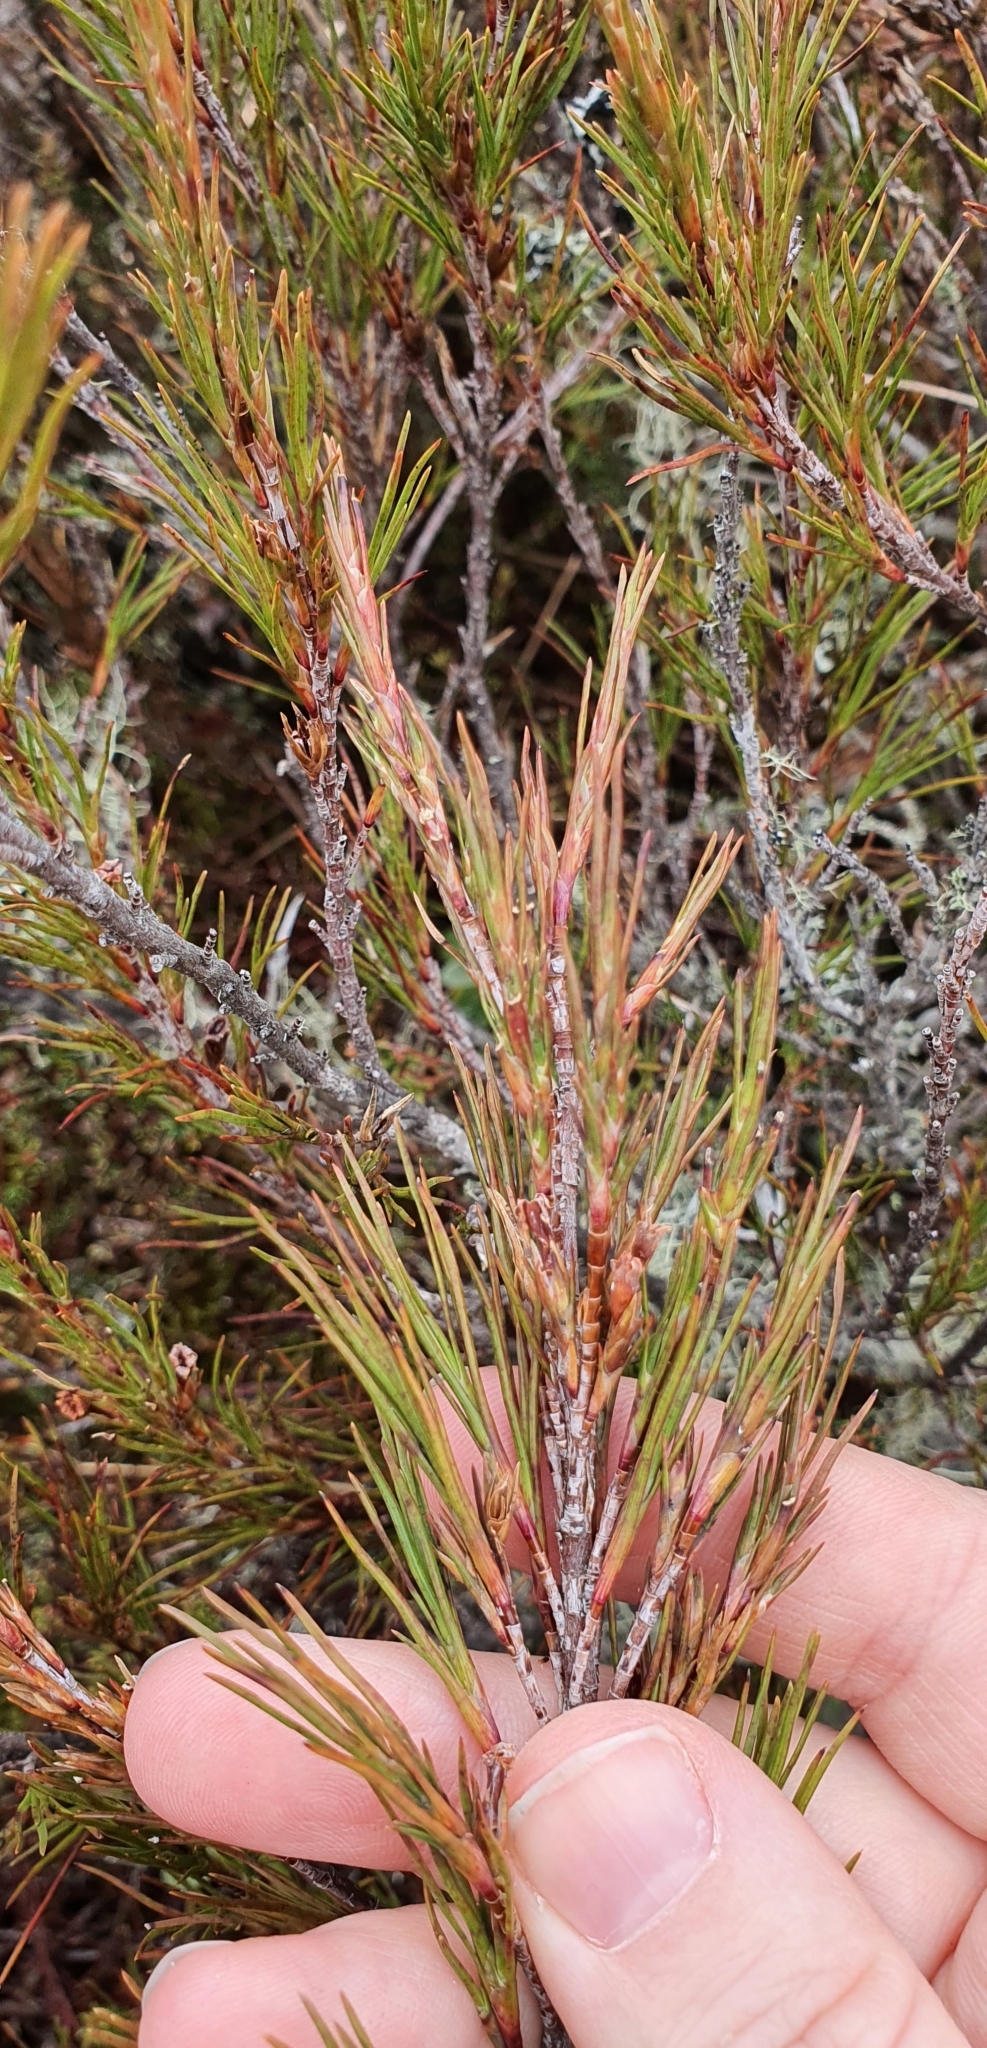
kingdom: Plantae
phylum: Tracheophyta
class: Magnoliopsida
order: Ericales
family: Ericaceae
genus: Dracophyllum
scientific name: Dracophyllum rosmarinifolium
